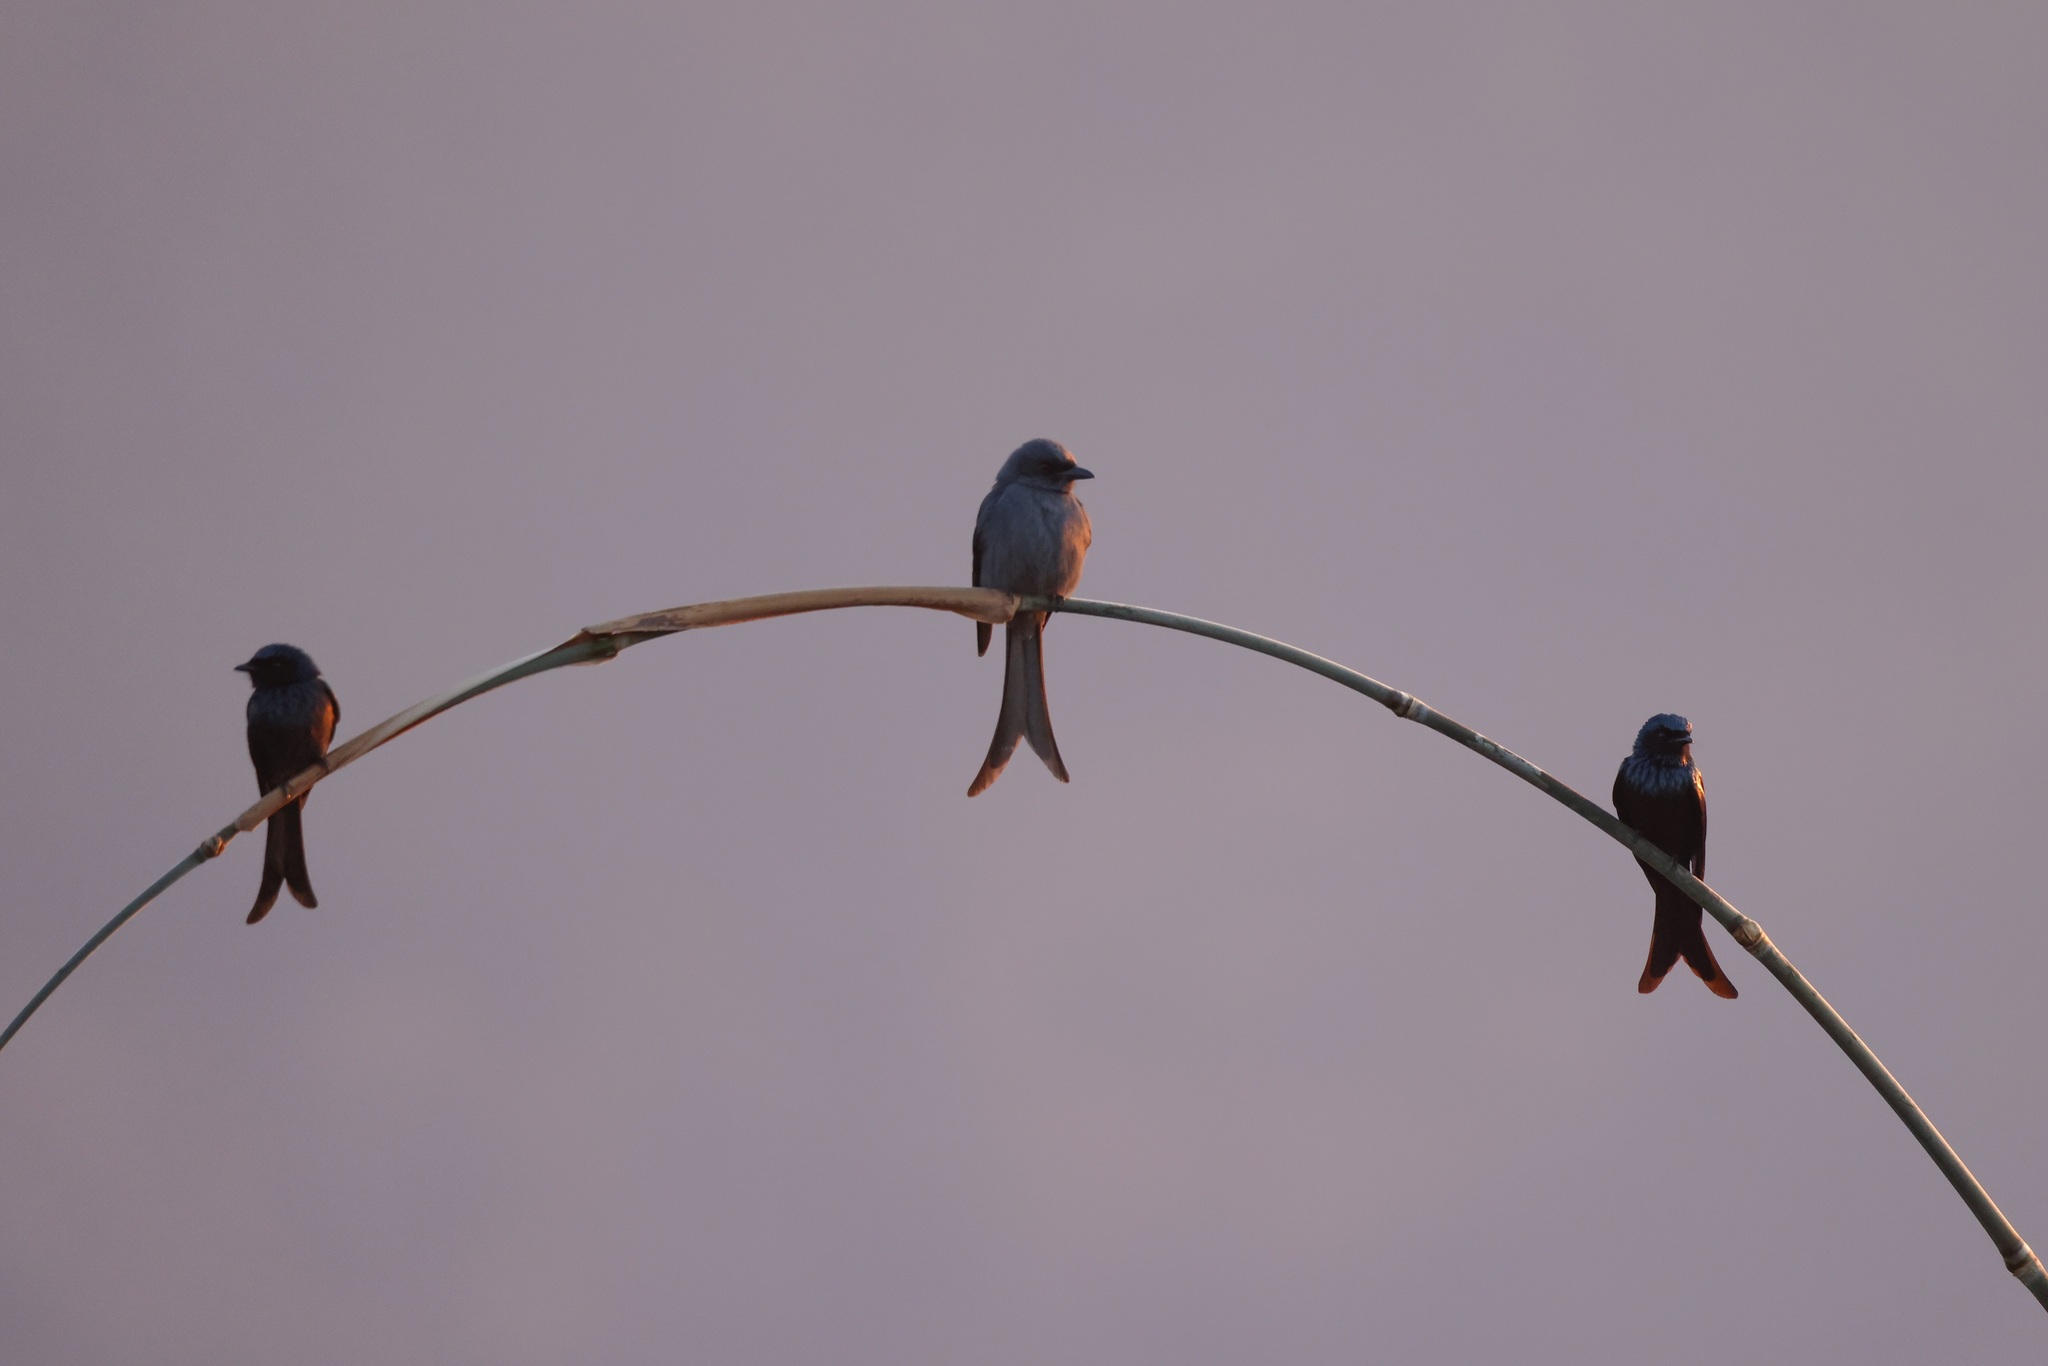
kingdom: Animalia
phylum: Chordata
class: Aves
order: Passeriformes
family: Dicruridae
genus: Dicrurus
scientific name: Dicrurus leucophaeus
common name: Ashy drongo
